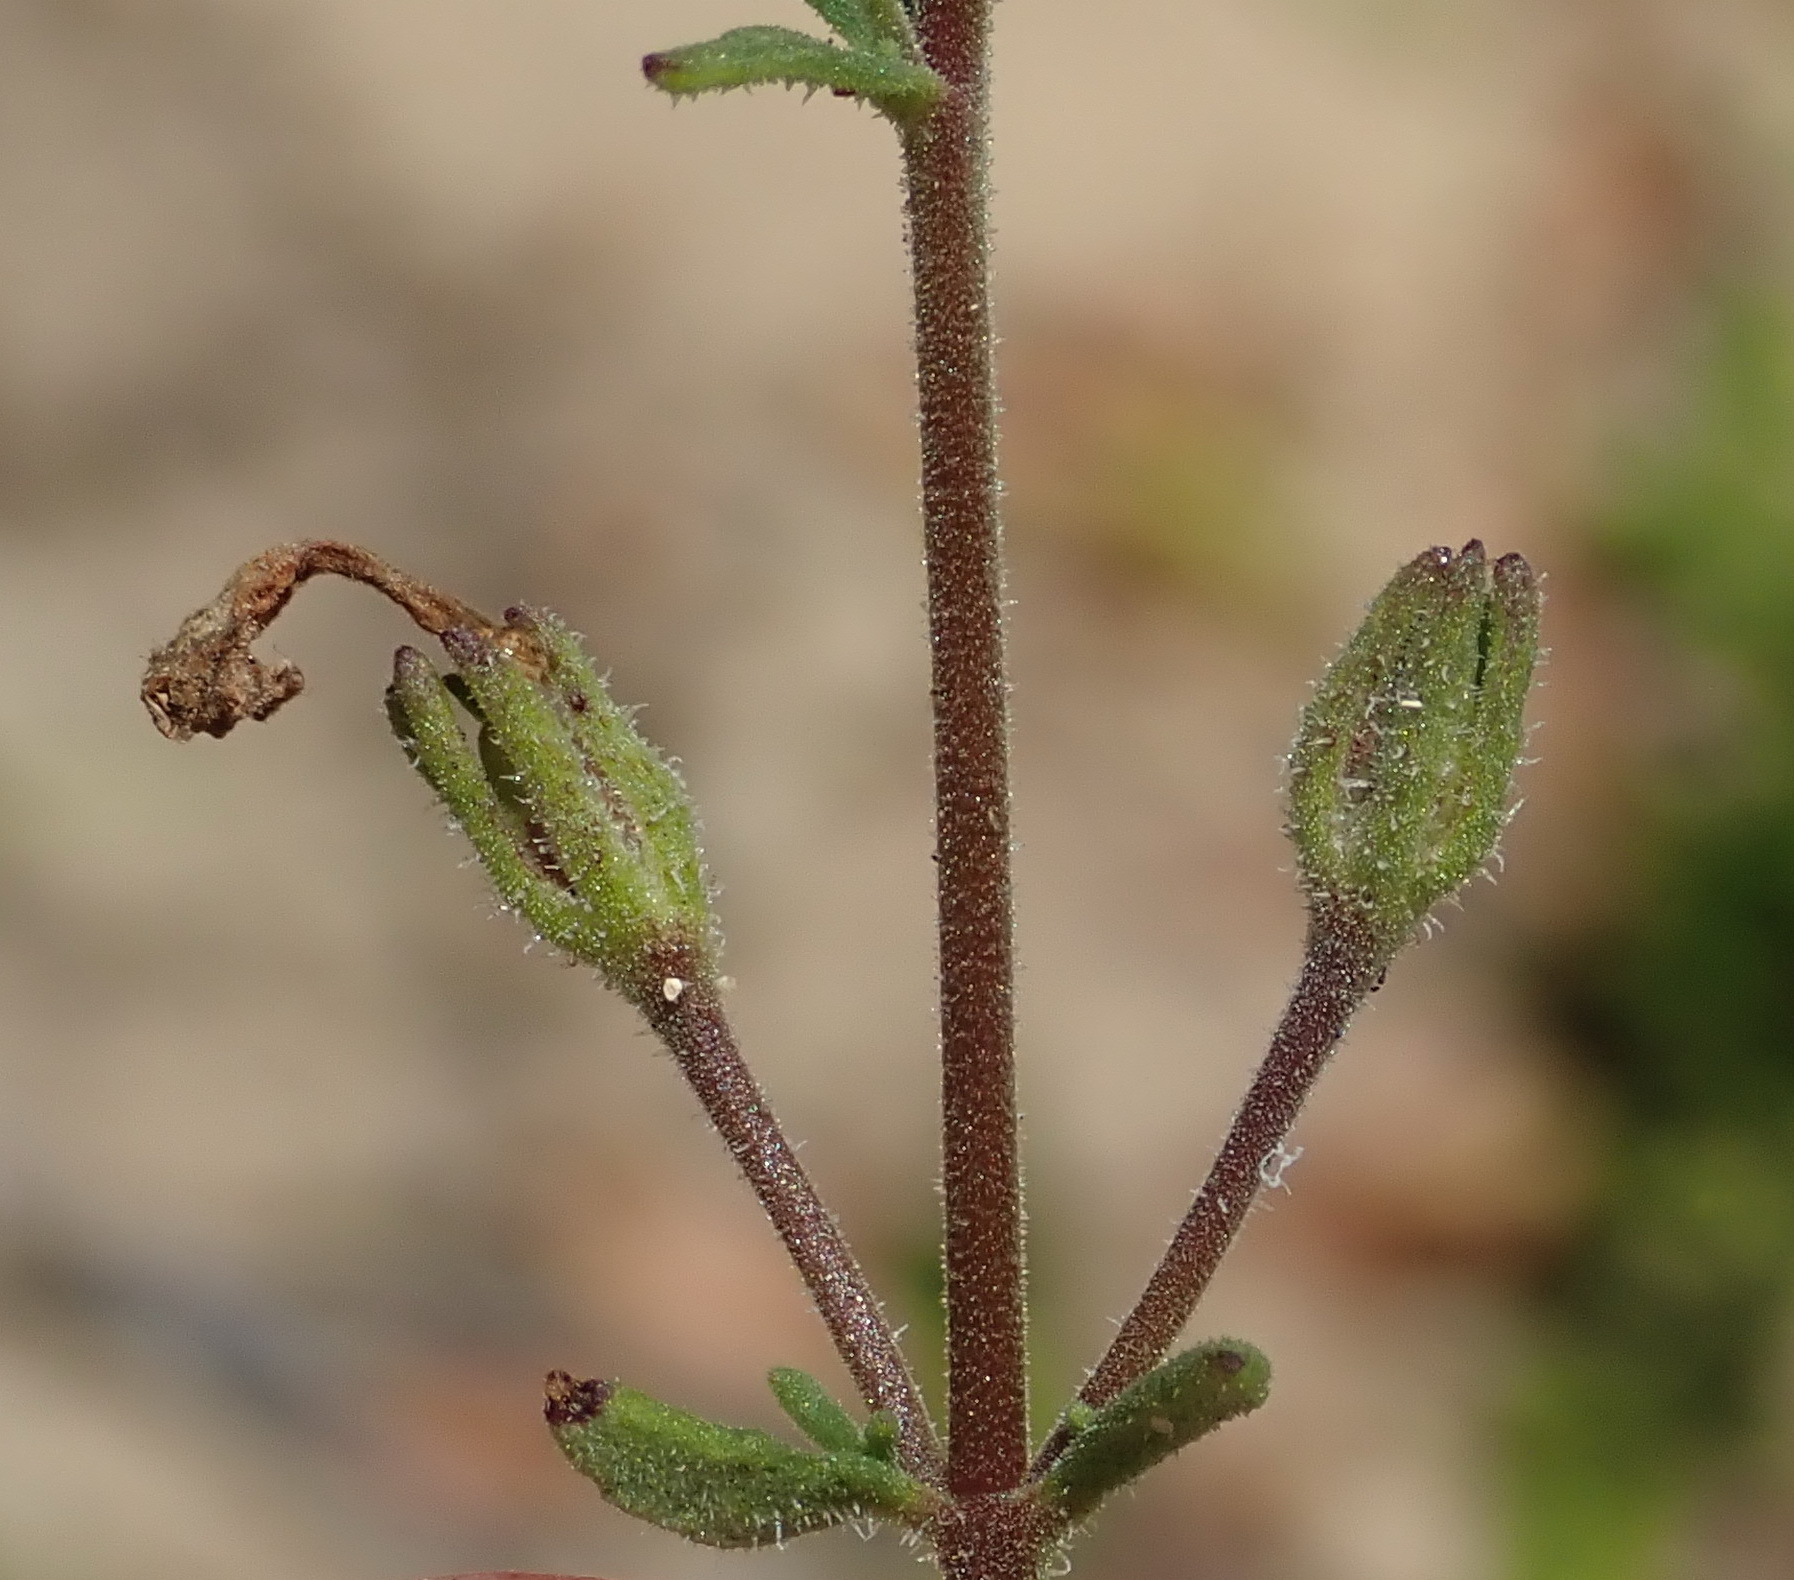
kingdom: Plantae
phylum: Tracheophyta
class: Magnoliopsida
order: Lamiales
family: Scrophulariaceae
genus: Chaenostoma
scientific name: Chaenostoma polyanthum
